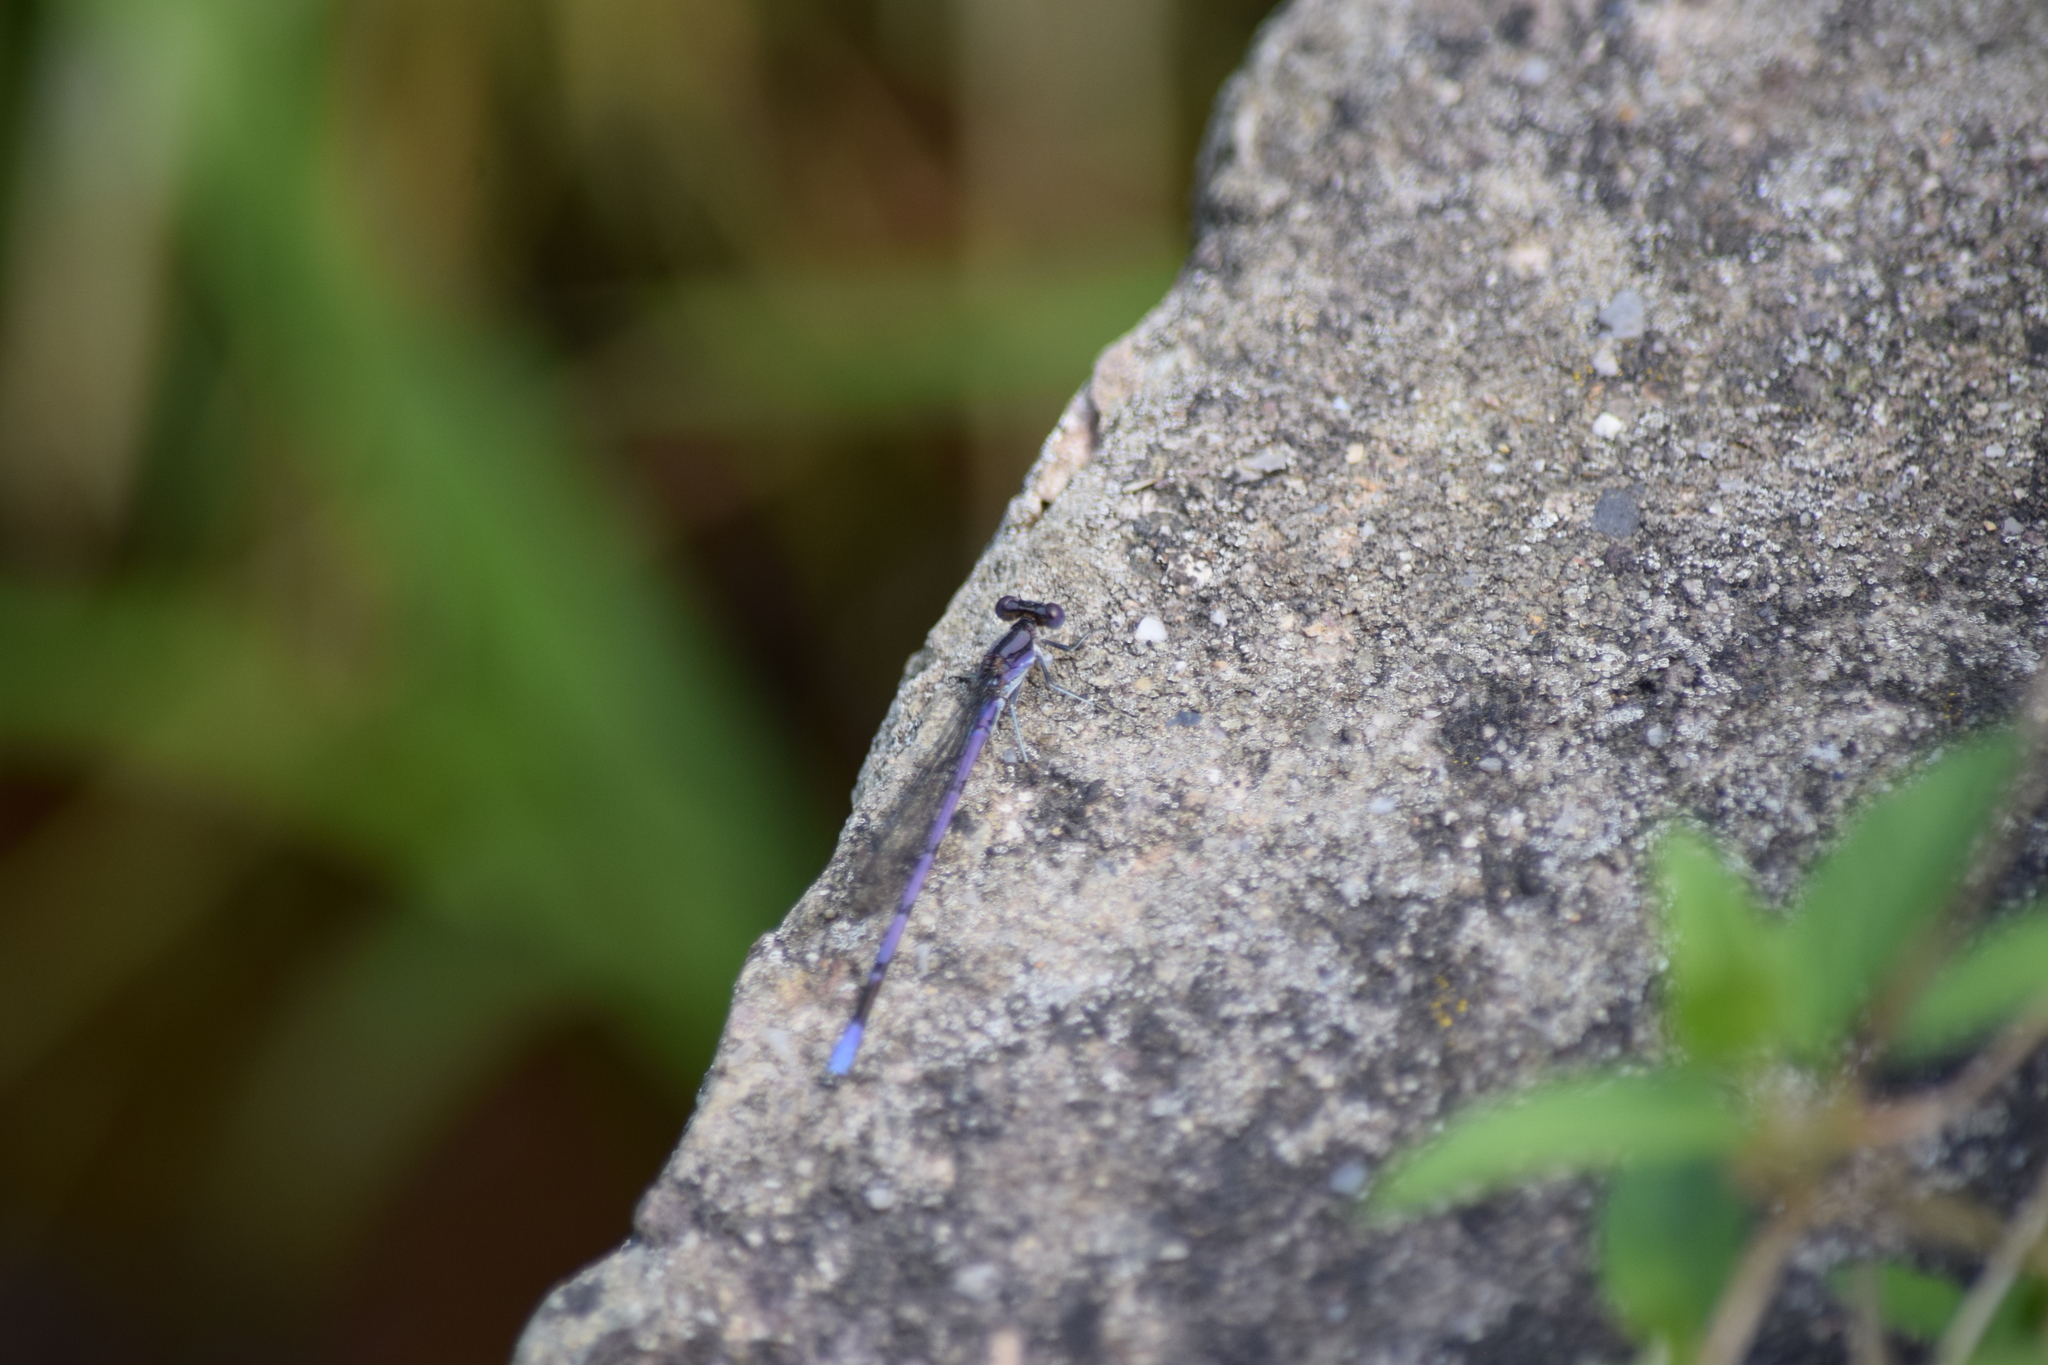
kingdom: Animalia
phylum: Arthropoda
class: Insecta
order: Odonata
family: Coenagrionidae
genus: Argia
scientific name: Argia fumipennis
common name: Variable dancer
